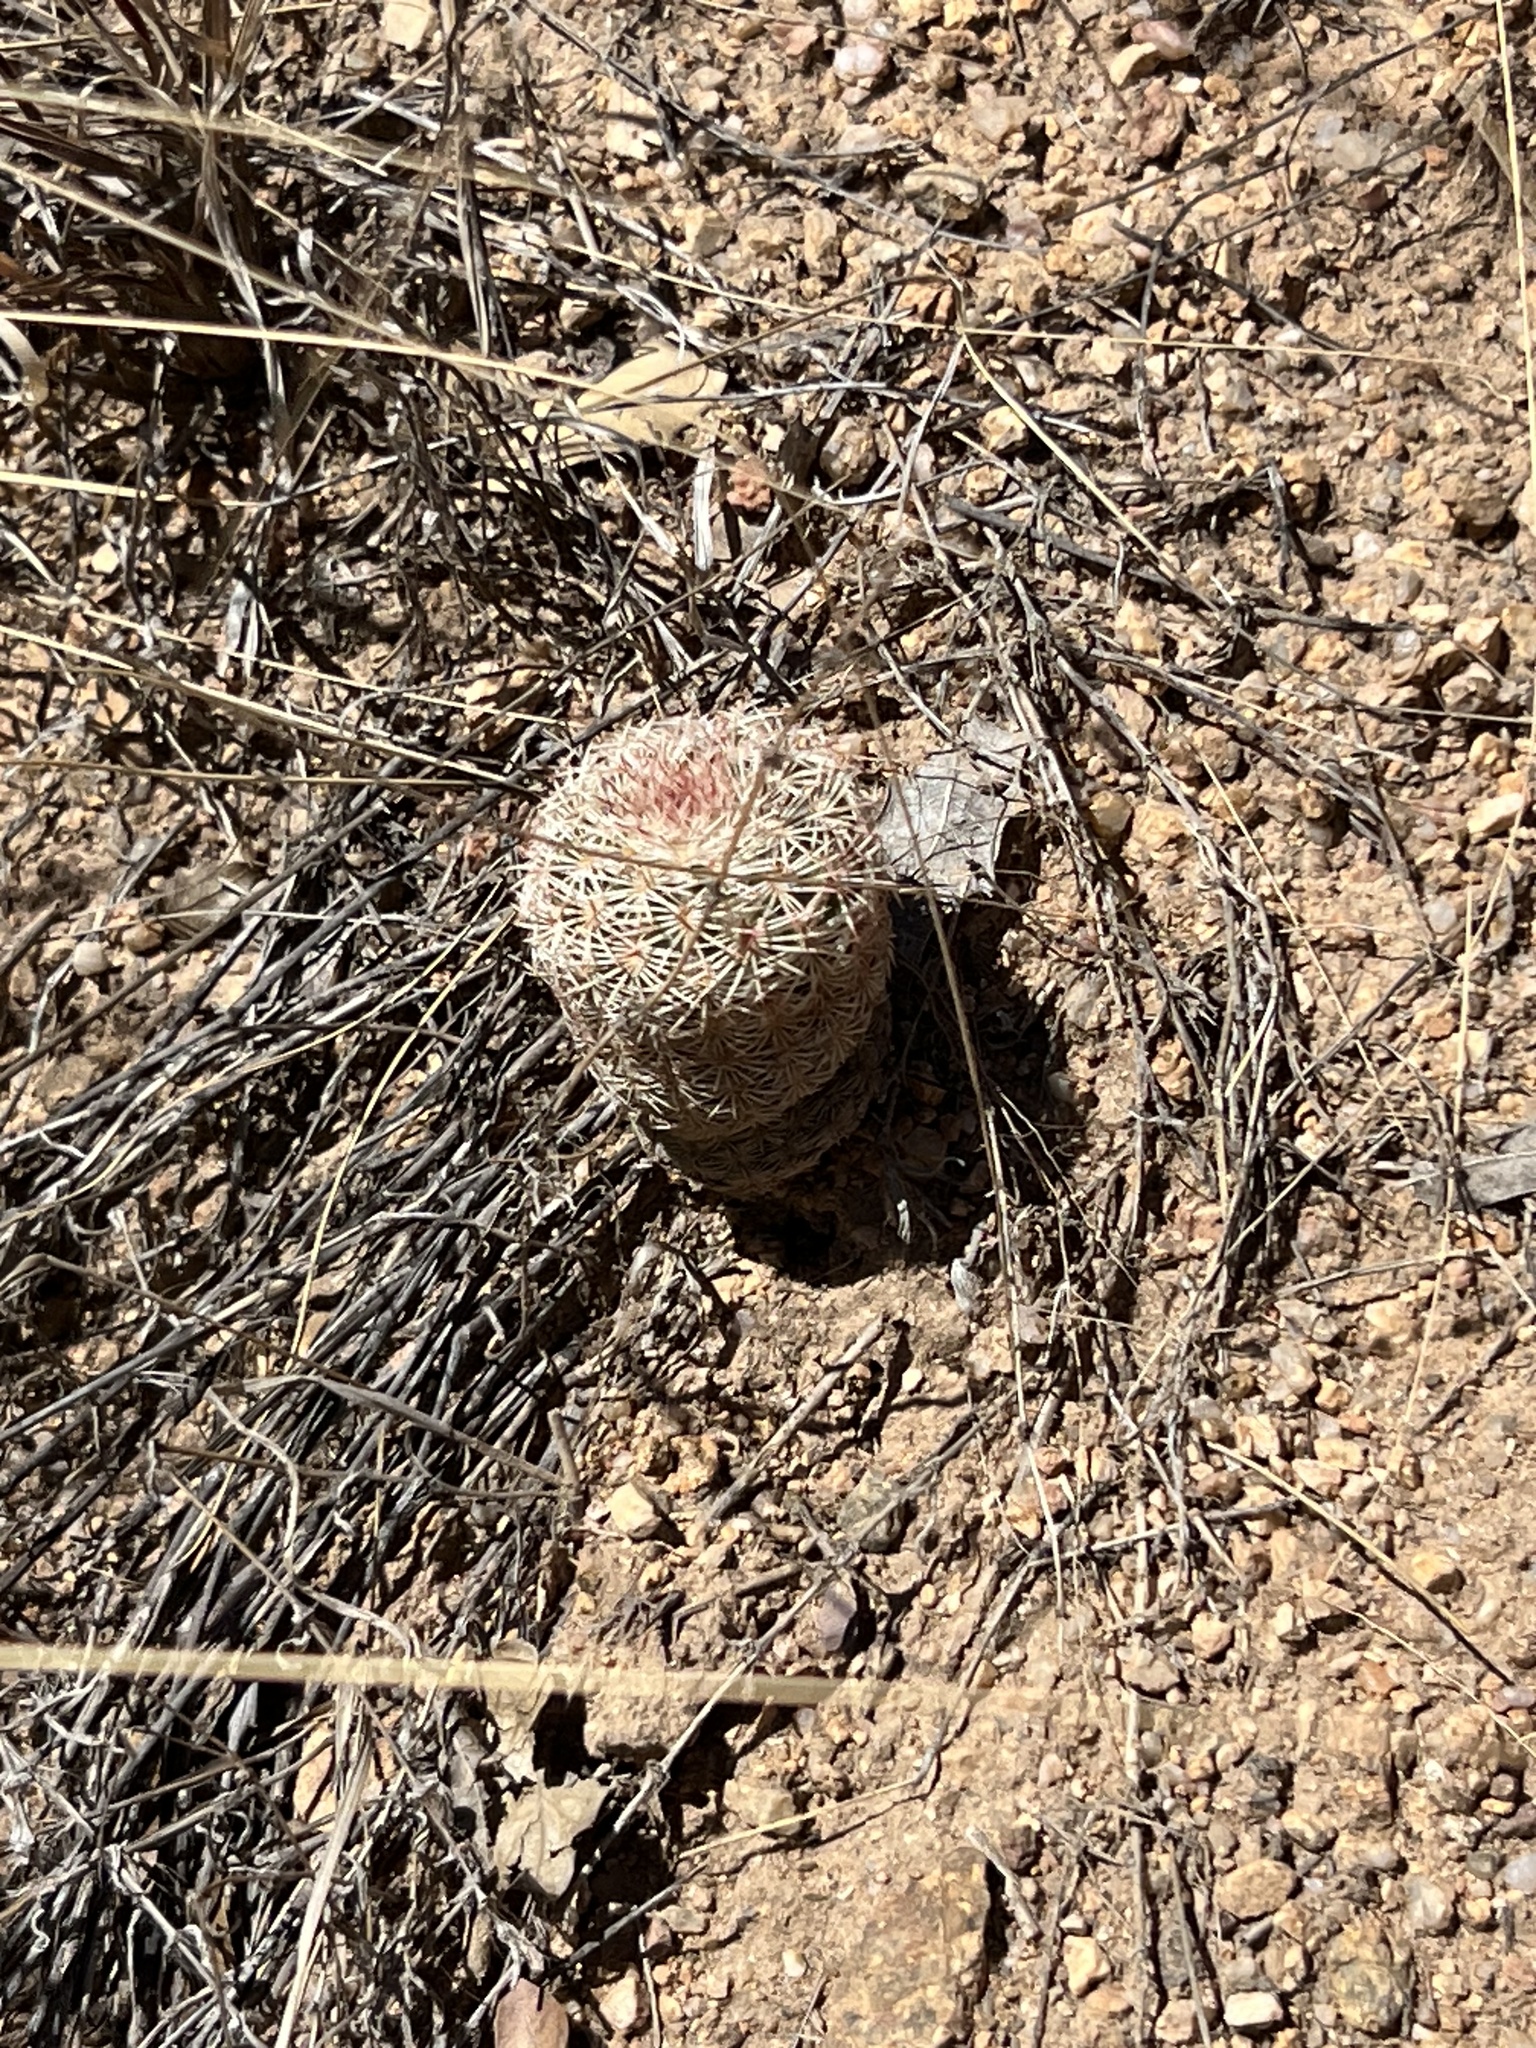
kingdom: Plantae
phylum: Tracheophyta
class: Magnoliopsida
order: Caryophyllales
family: Cactaceae
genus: Echinocereus
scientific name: Echinocereus rigidissimus
